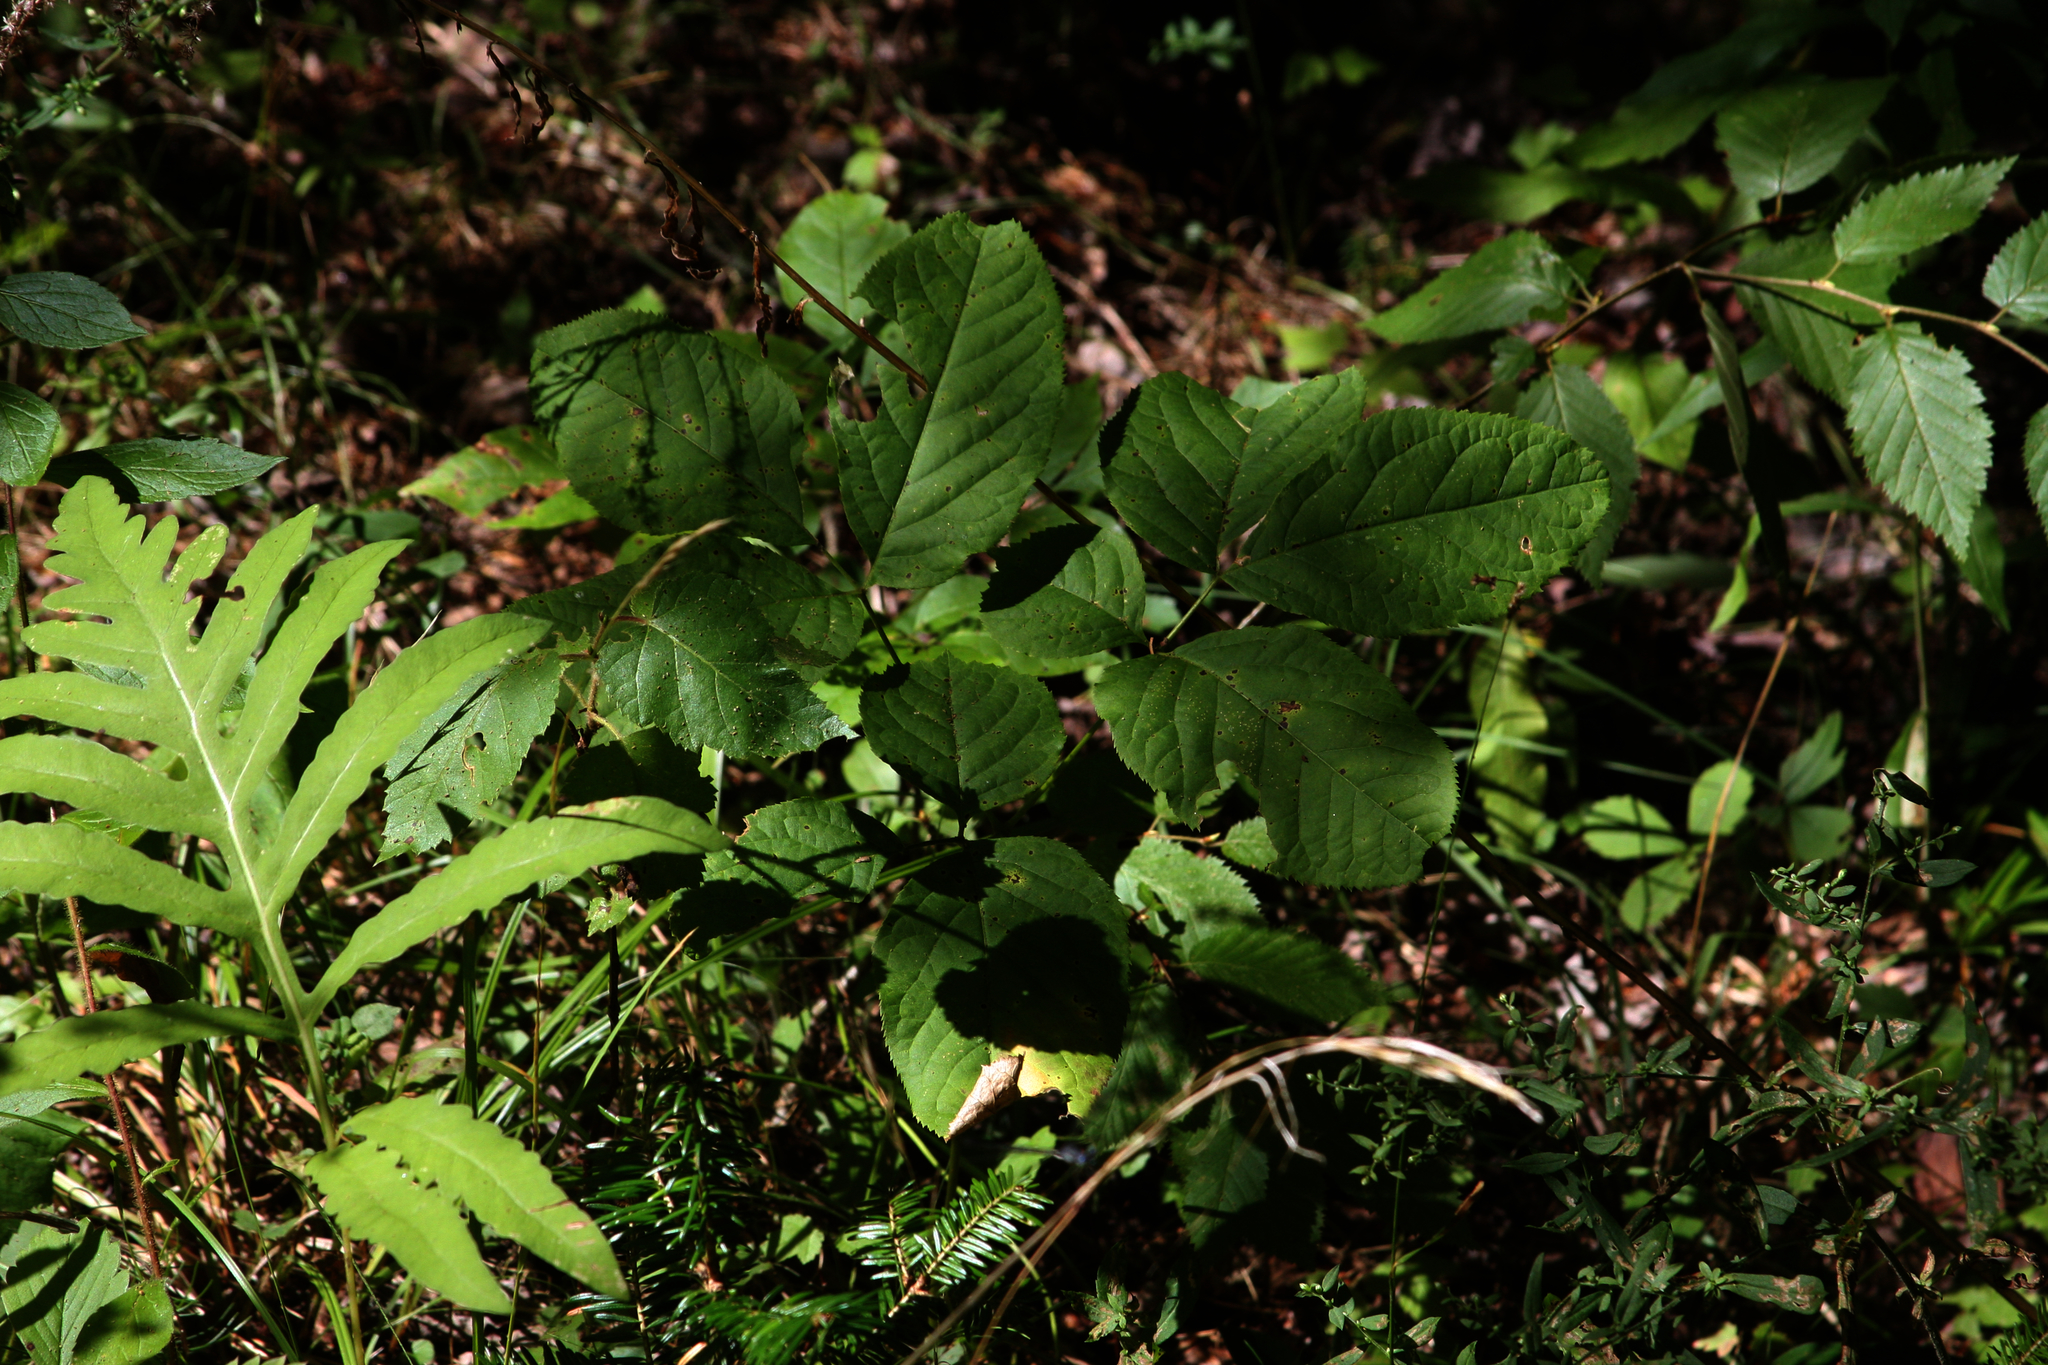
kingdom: Plantae
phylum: Tracheophyta
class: Magnoliopsida
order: Apiales
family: Araliaceae
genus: Aralia
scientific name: Aralia nudicaulis
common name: Wild sarsaparilla
